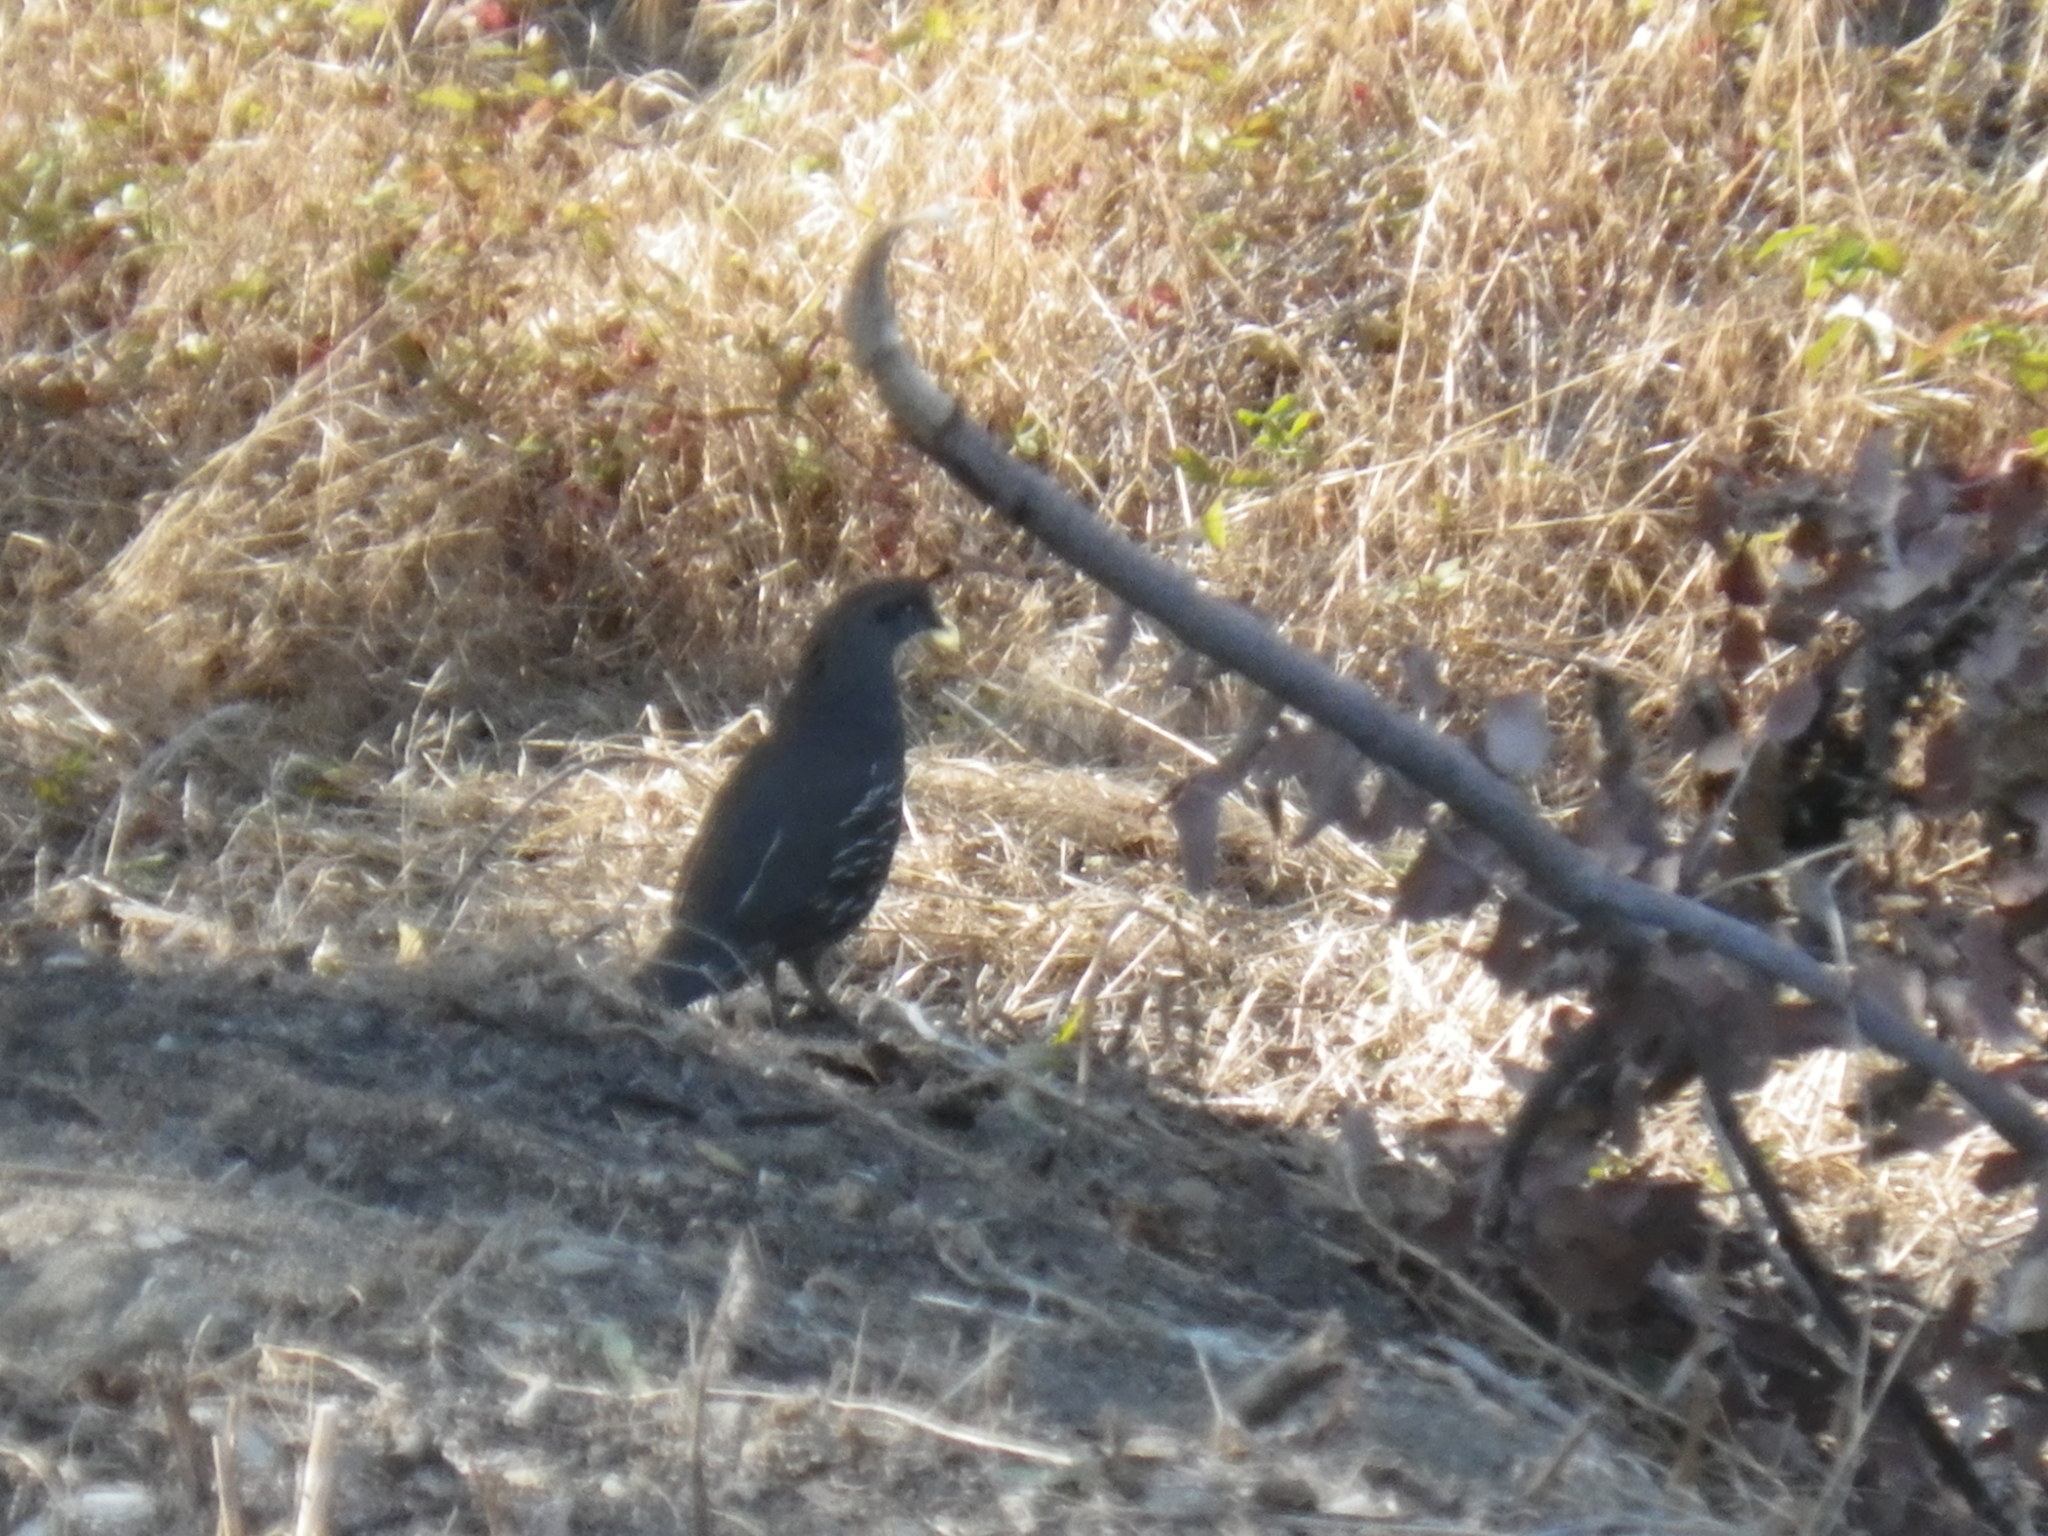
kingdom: Animalia
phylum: Chordata
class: Aves
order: Galliformes
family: Odontophoridae
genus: Callipepla
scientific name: Callipepla californica
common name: California quail
